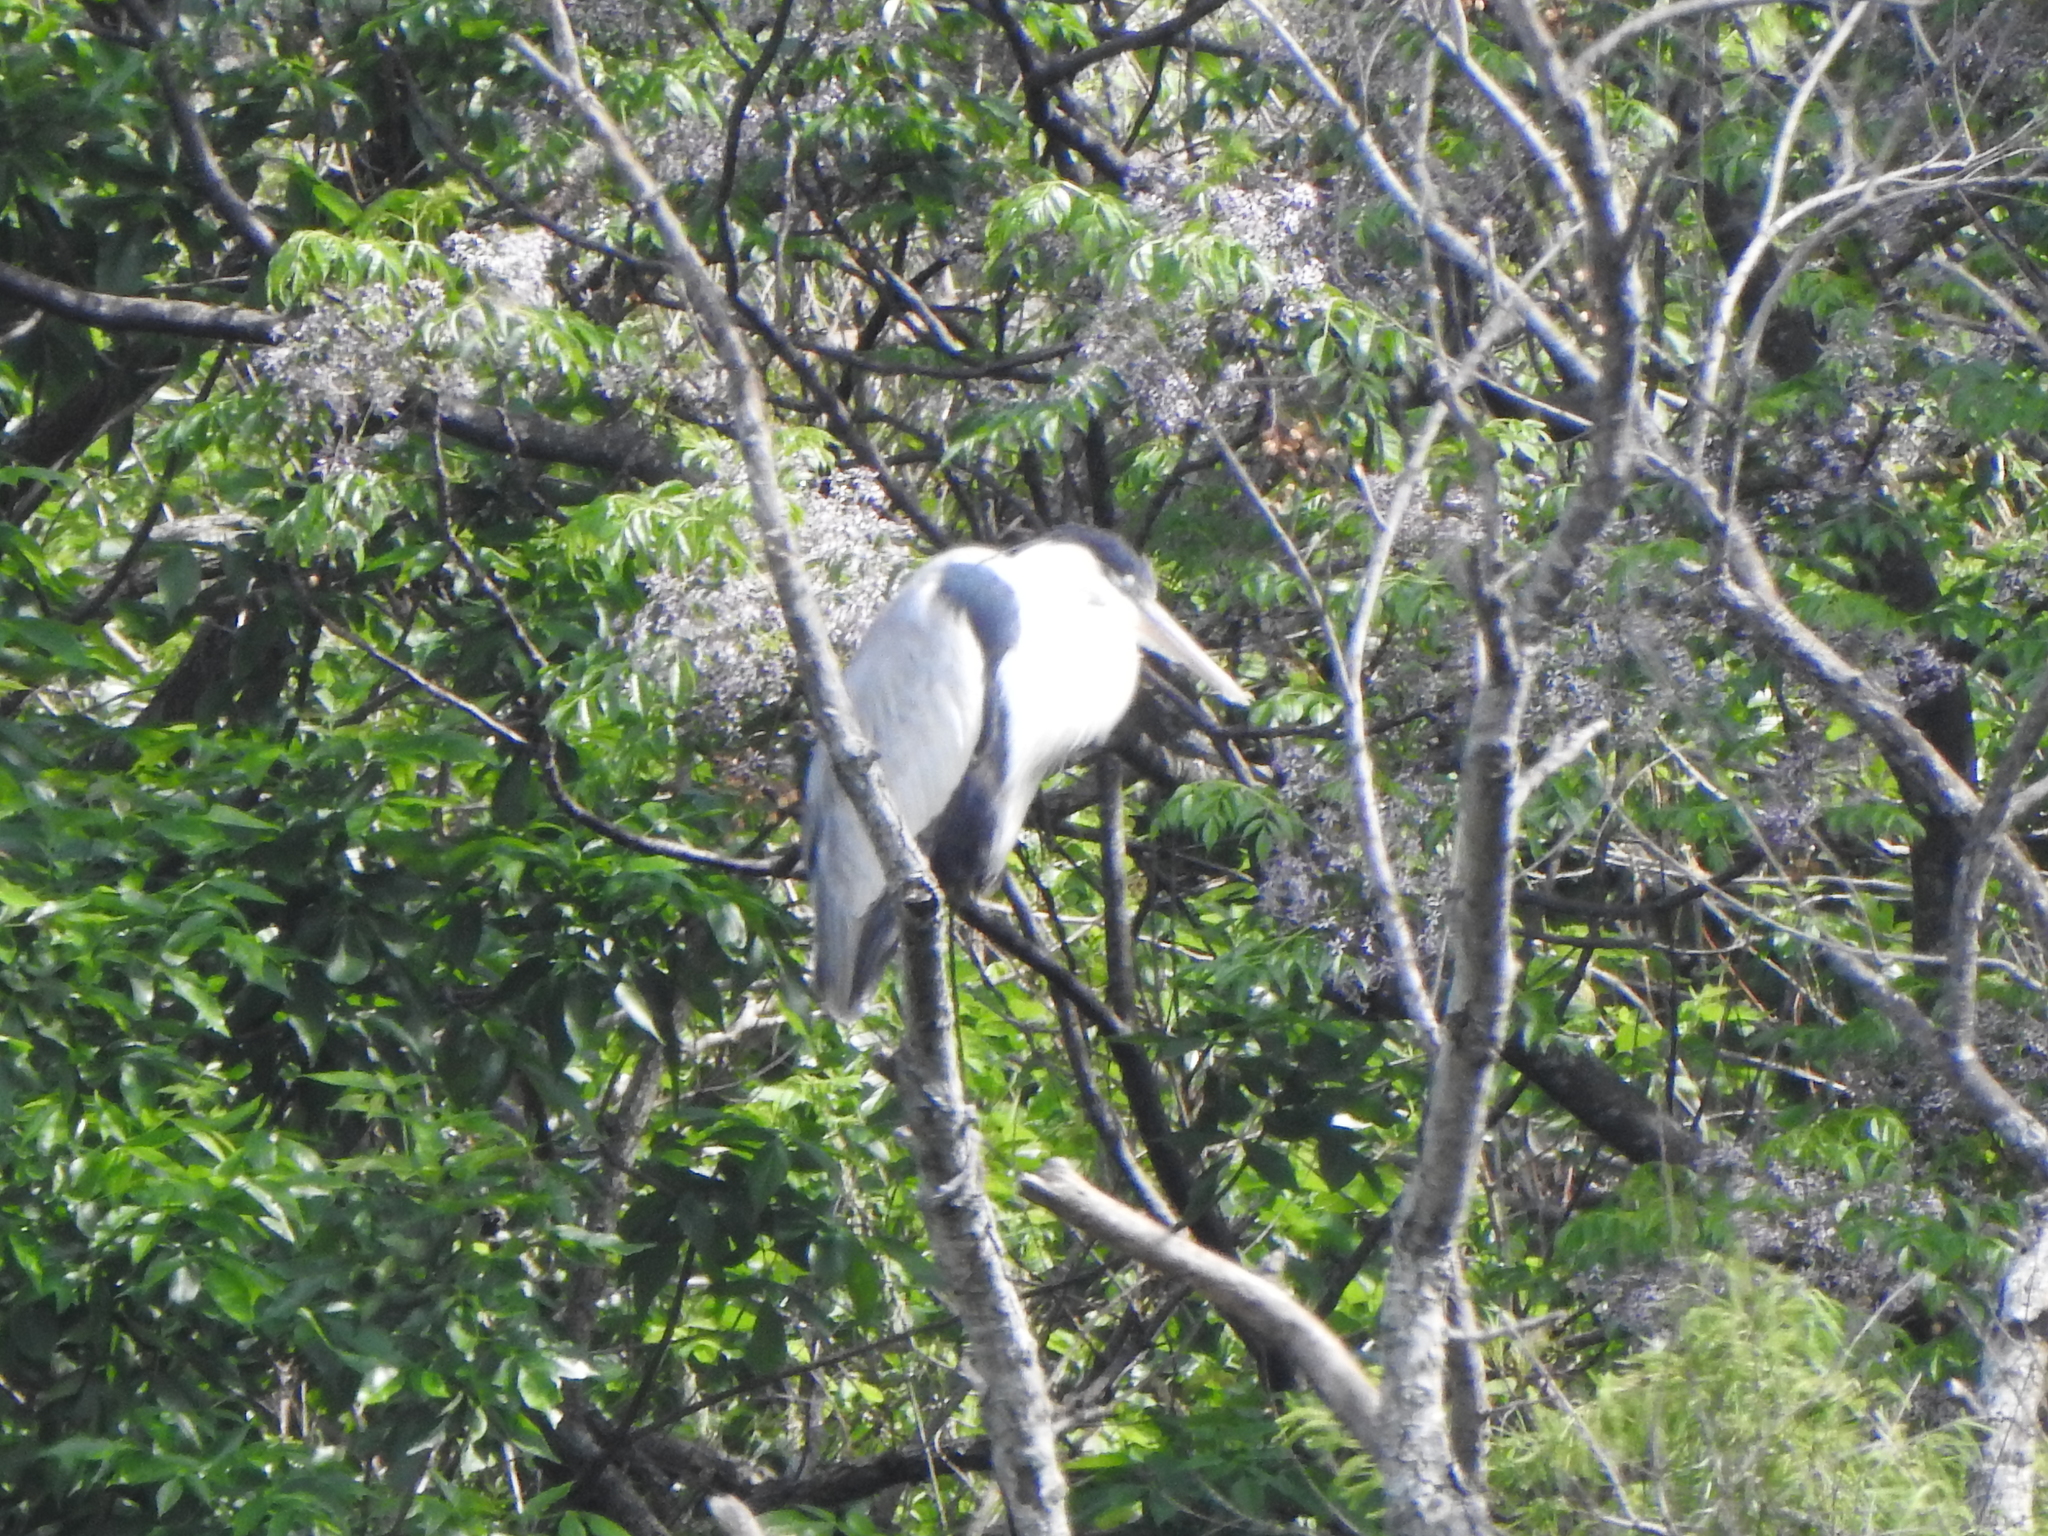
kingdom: Animalia
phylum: Chordata
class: Aves
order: Pelecaniformes
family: Ardeidae
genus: Ardea
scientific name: Ardea cocoi
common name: Cocoi heron
